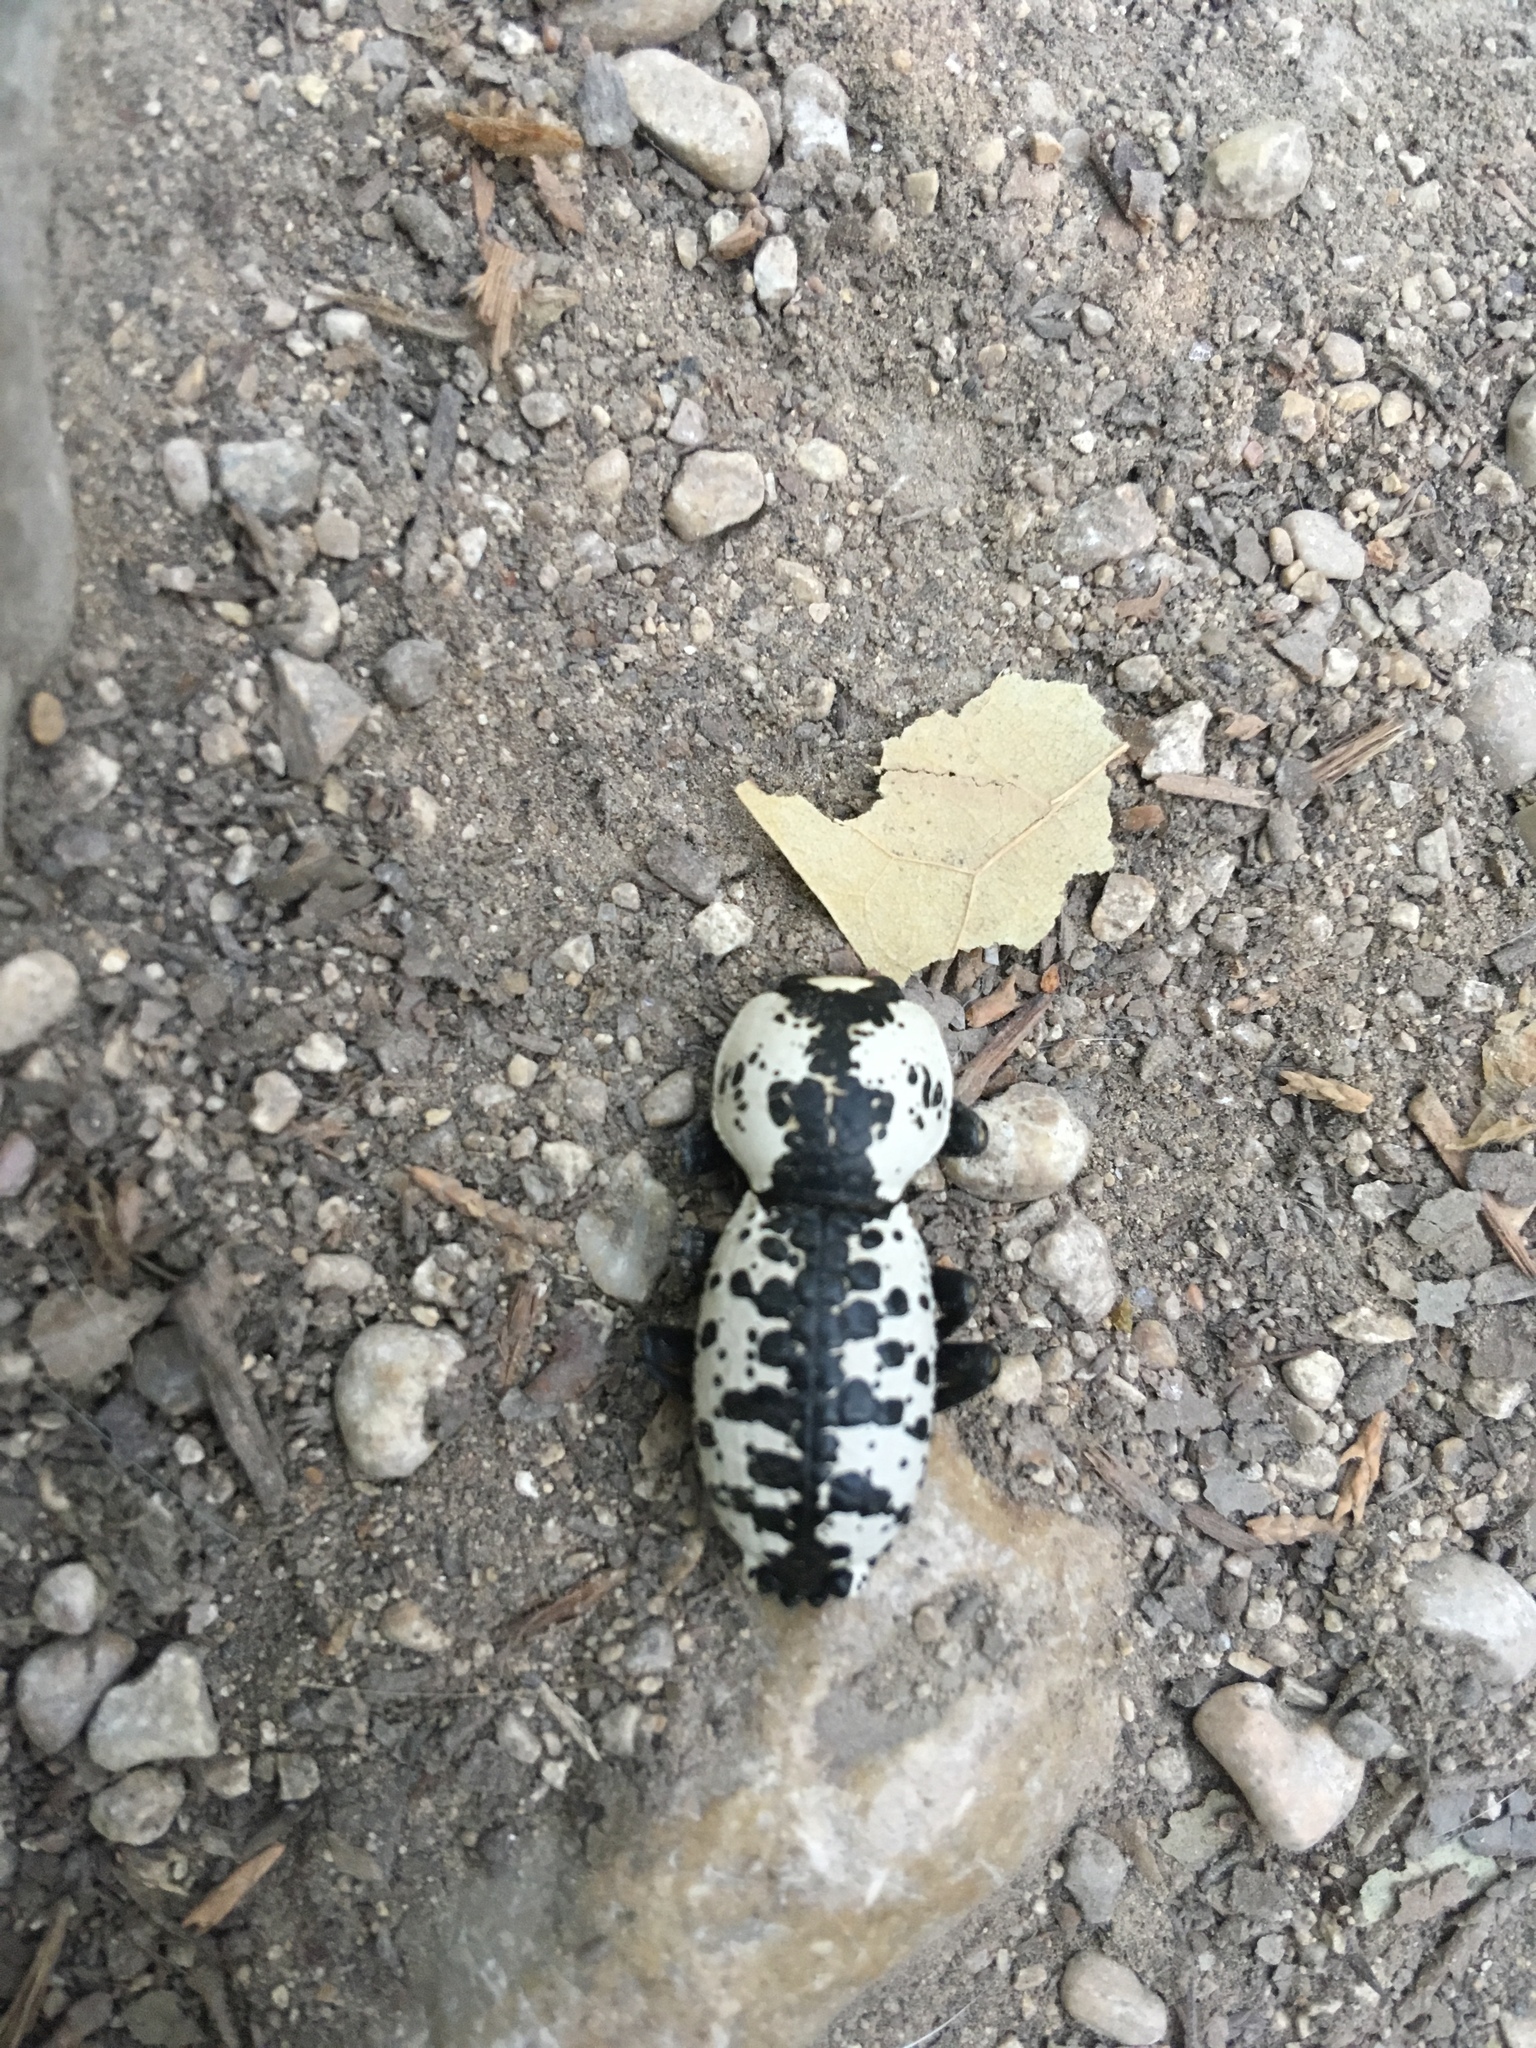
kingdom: Animalia
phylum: Arthropoda
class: Insecta
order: Coleoptera
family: Zopheridae
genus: Zopherus
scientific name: Zopherus nodulosus
